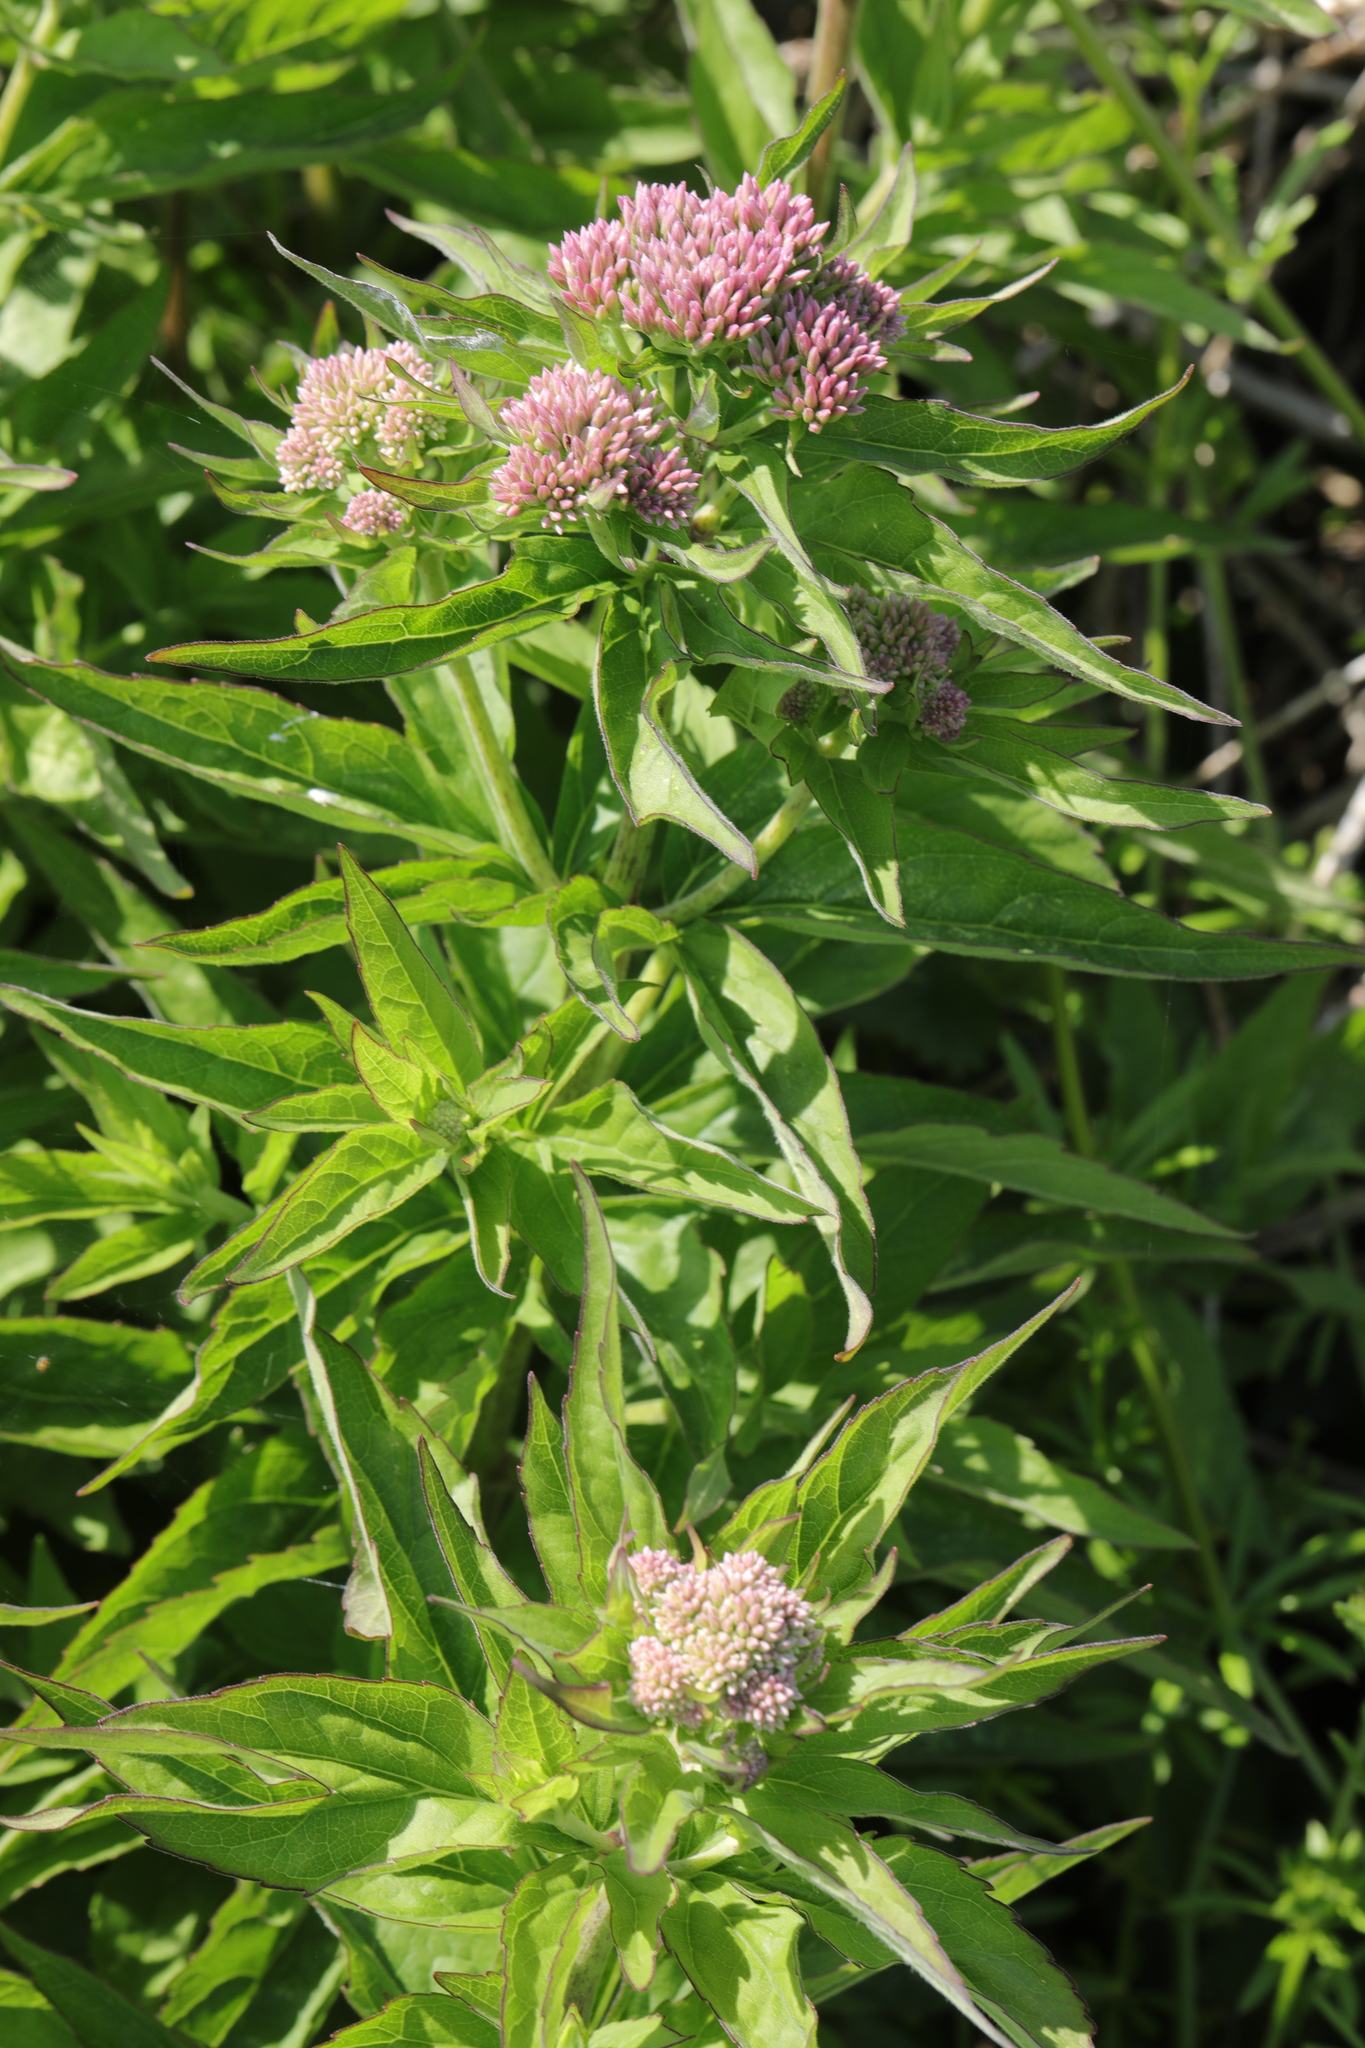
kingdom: Plantae
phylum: Tracheophyta
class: Magnoliopsida
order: Asterales
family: Asteraceae
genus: Eupatorium
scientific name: Eupatorium cannabinum
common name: Hemp-agrimony
